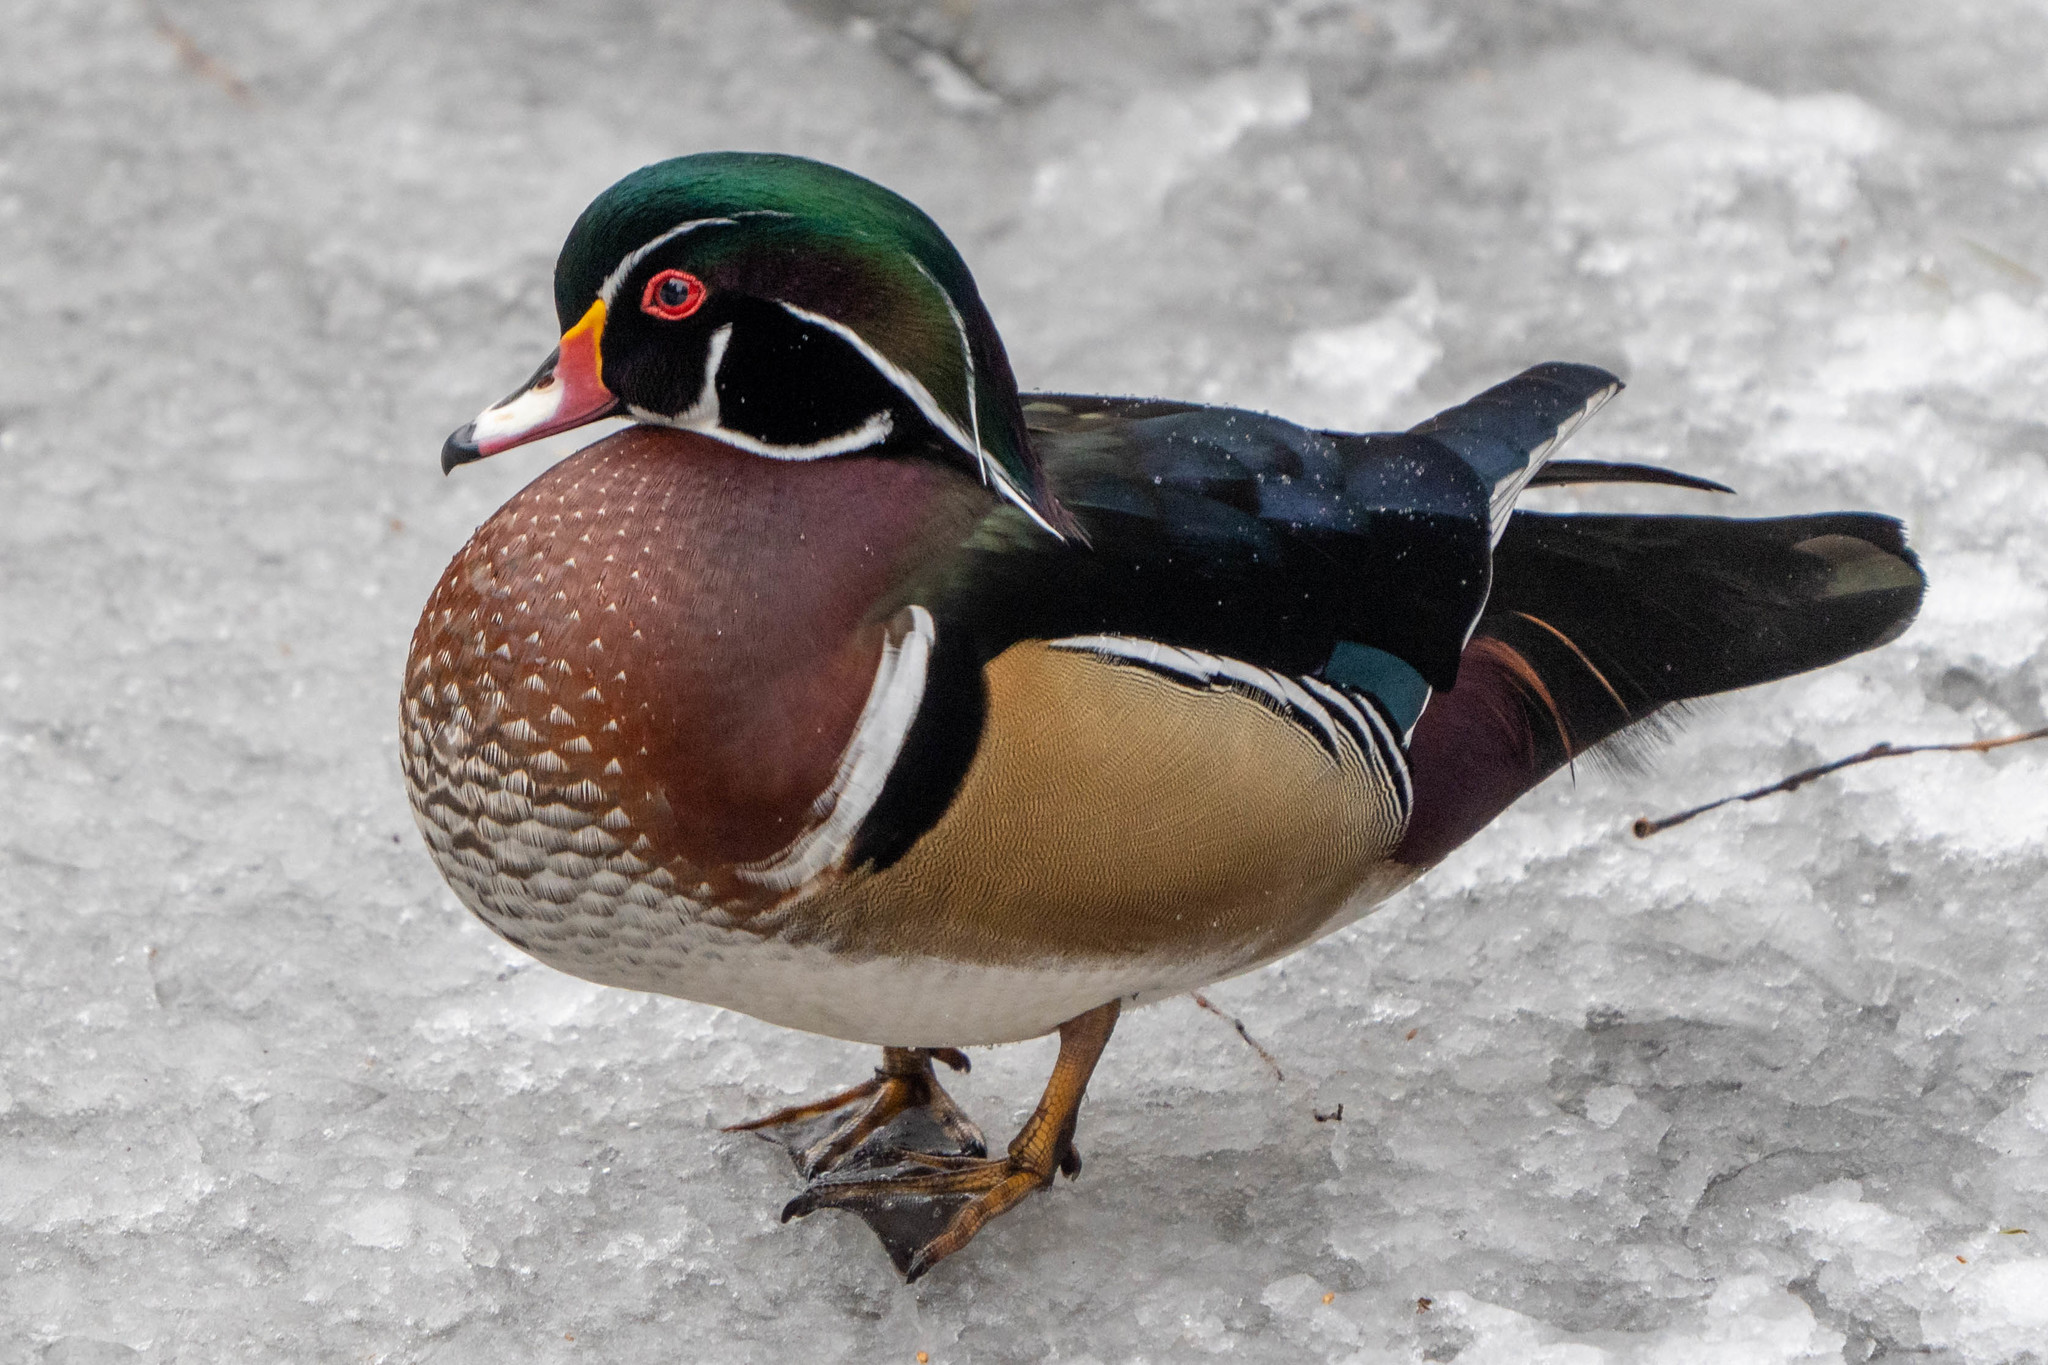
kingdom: Animalia
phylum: Chordata
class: Aves
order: Anseriformes
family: Anatidae
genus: Aix
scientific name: Aix sponsa
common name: Wood duck
